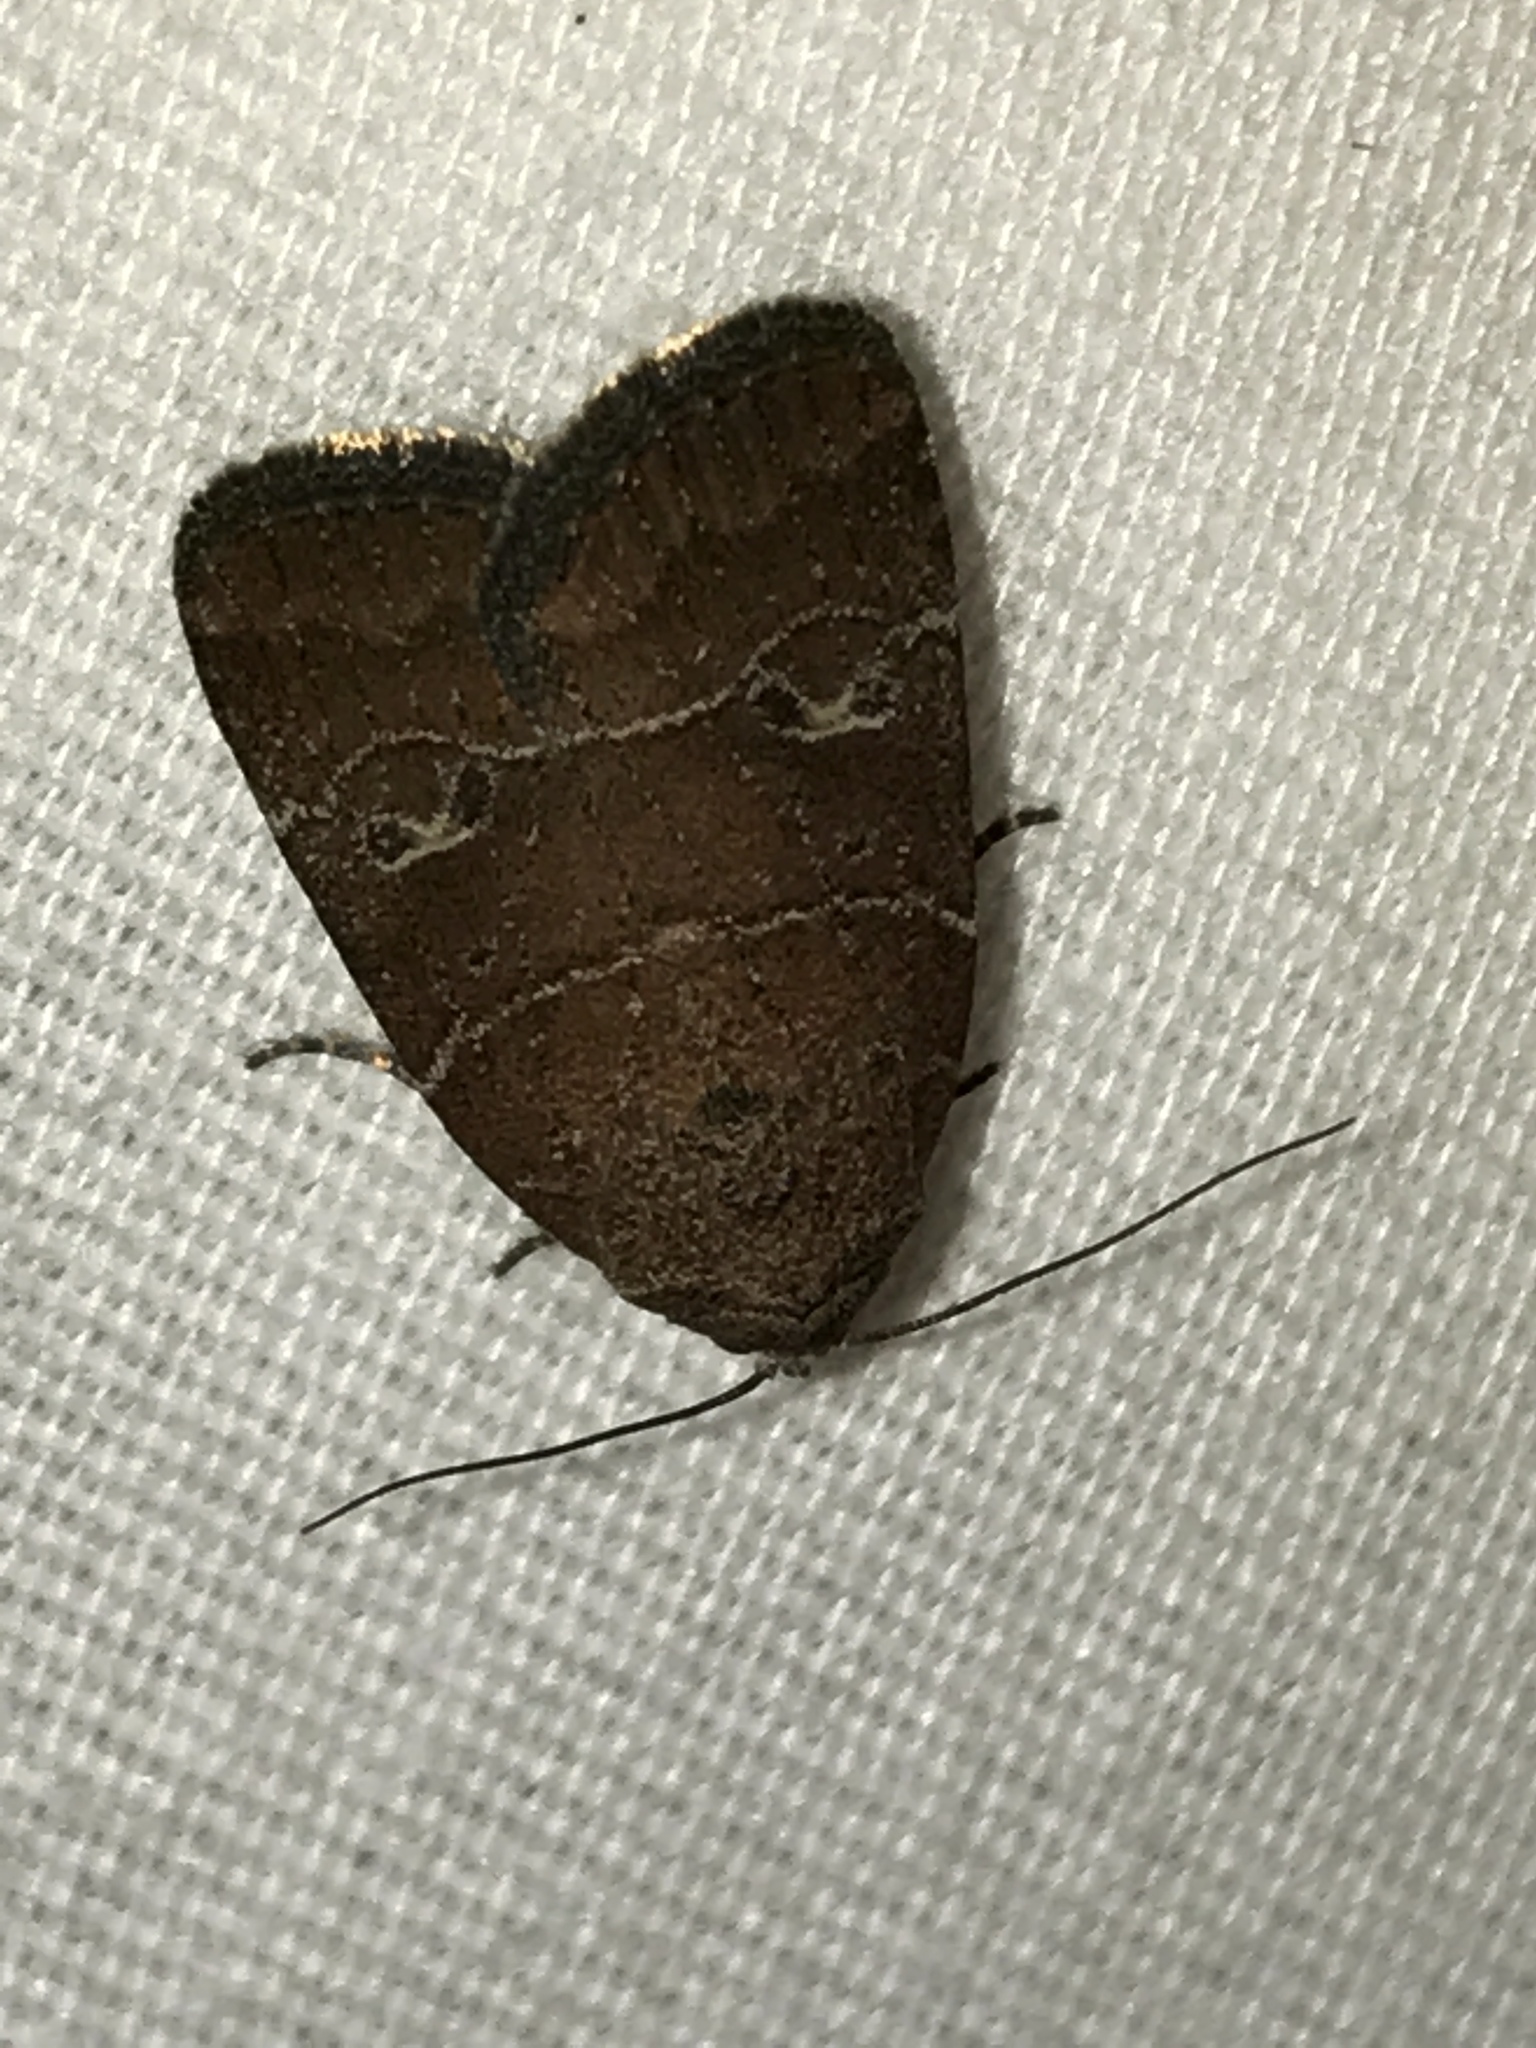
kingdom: Animalia
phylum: Arthropoda
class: Insecta
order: Lepidoptera
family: Noctuidae
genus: Elaphria
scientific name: Elaphria grata
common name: Grateful midget moth
